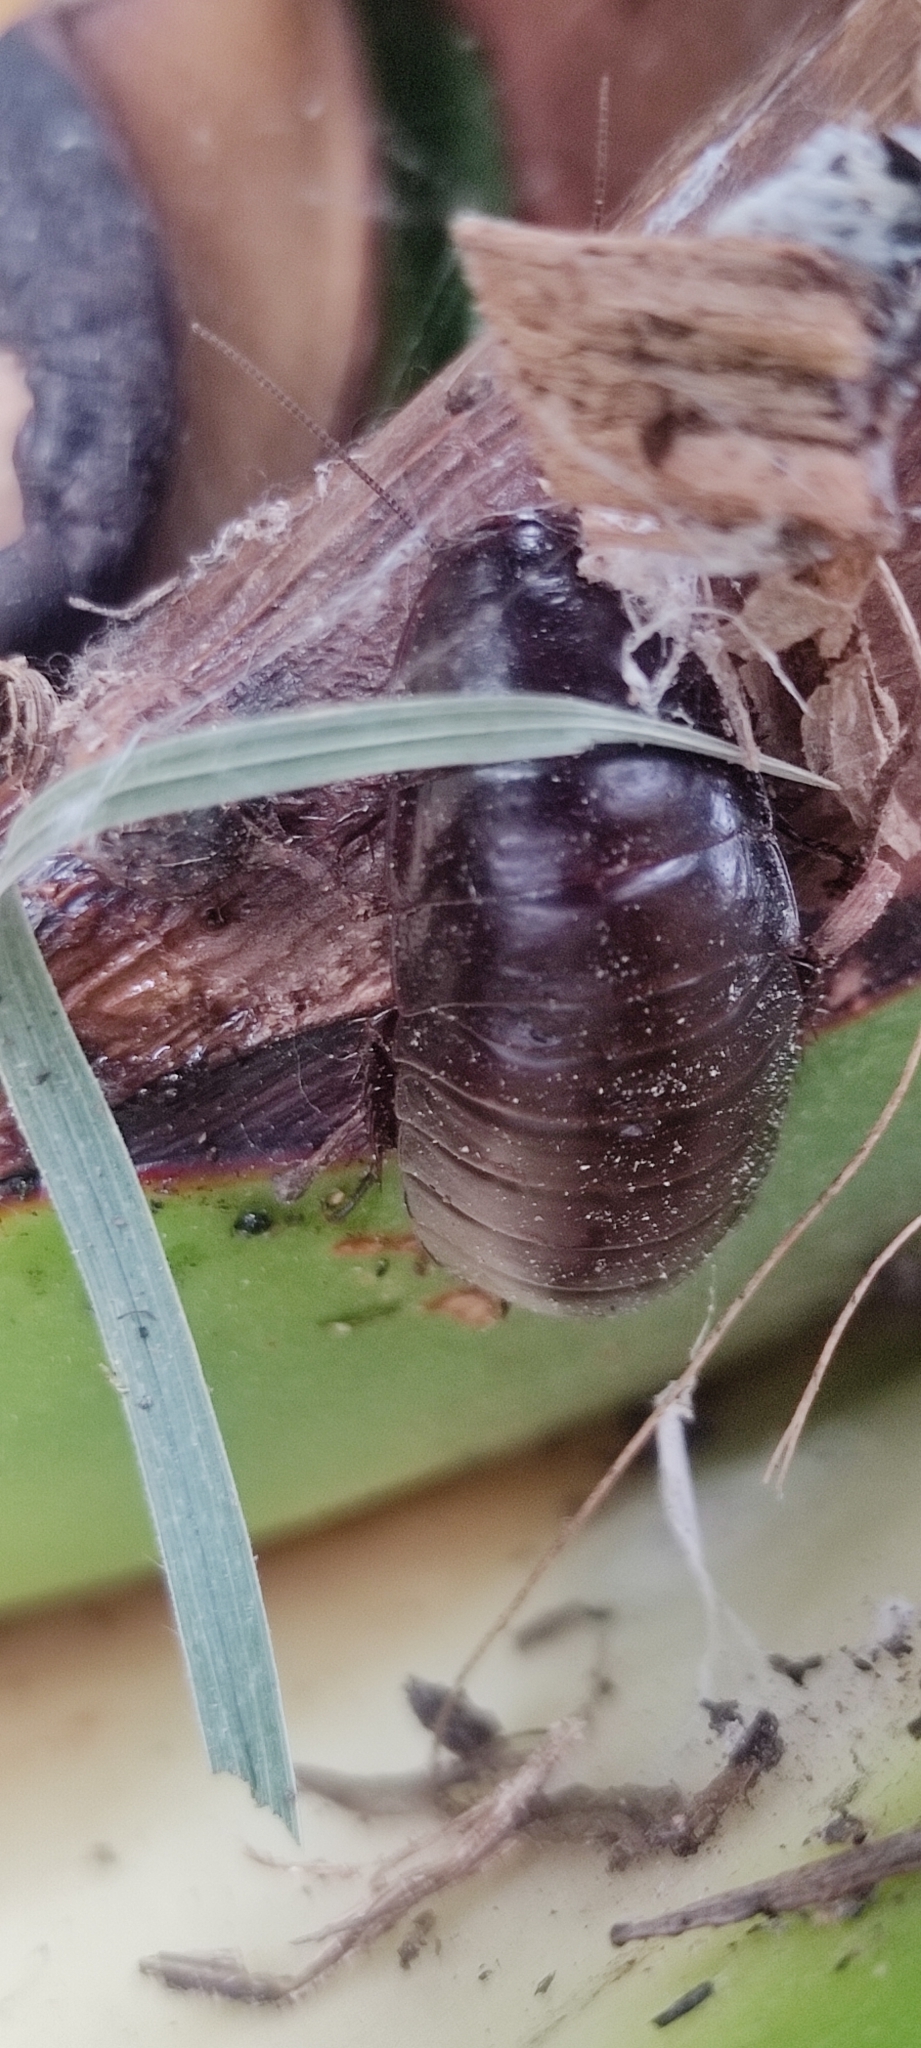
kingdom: Animalia
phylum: Arthropoda
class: Insecta
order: Blattodea
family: Blaberidae
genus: Oxycercus
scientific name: Oxycercus peruvianus
